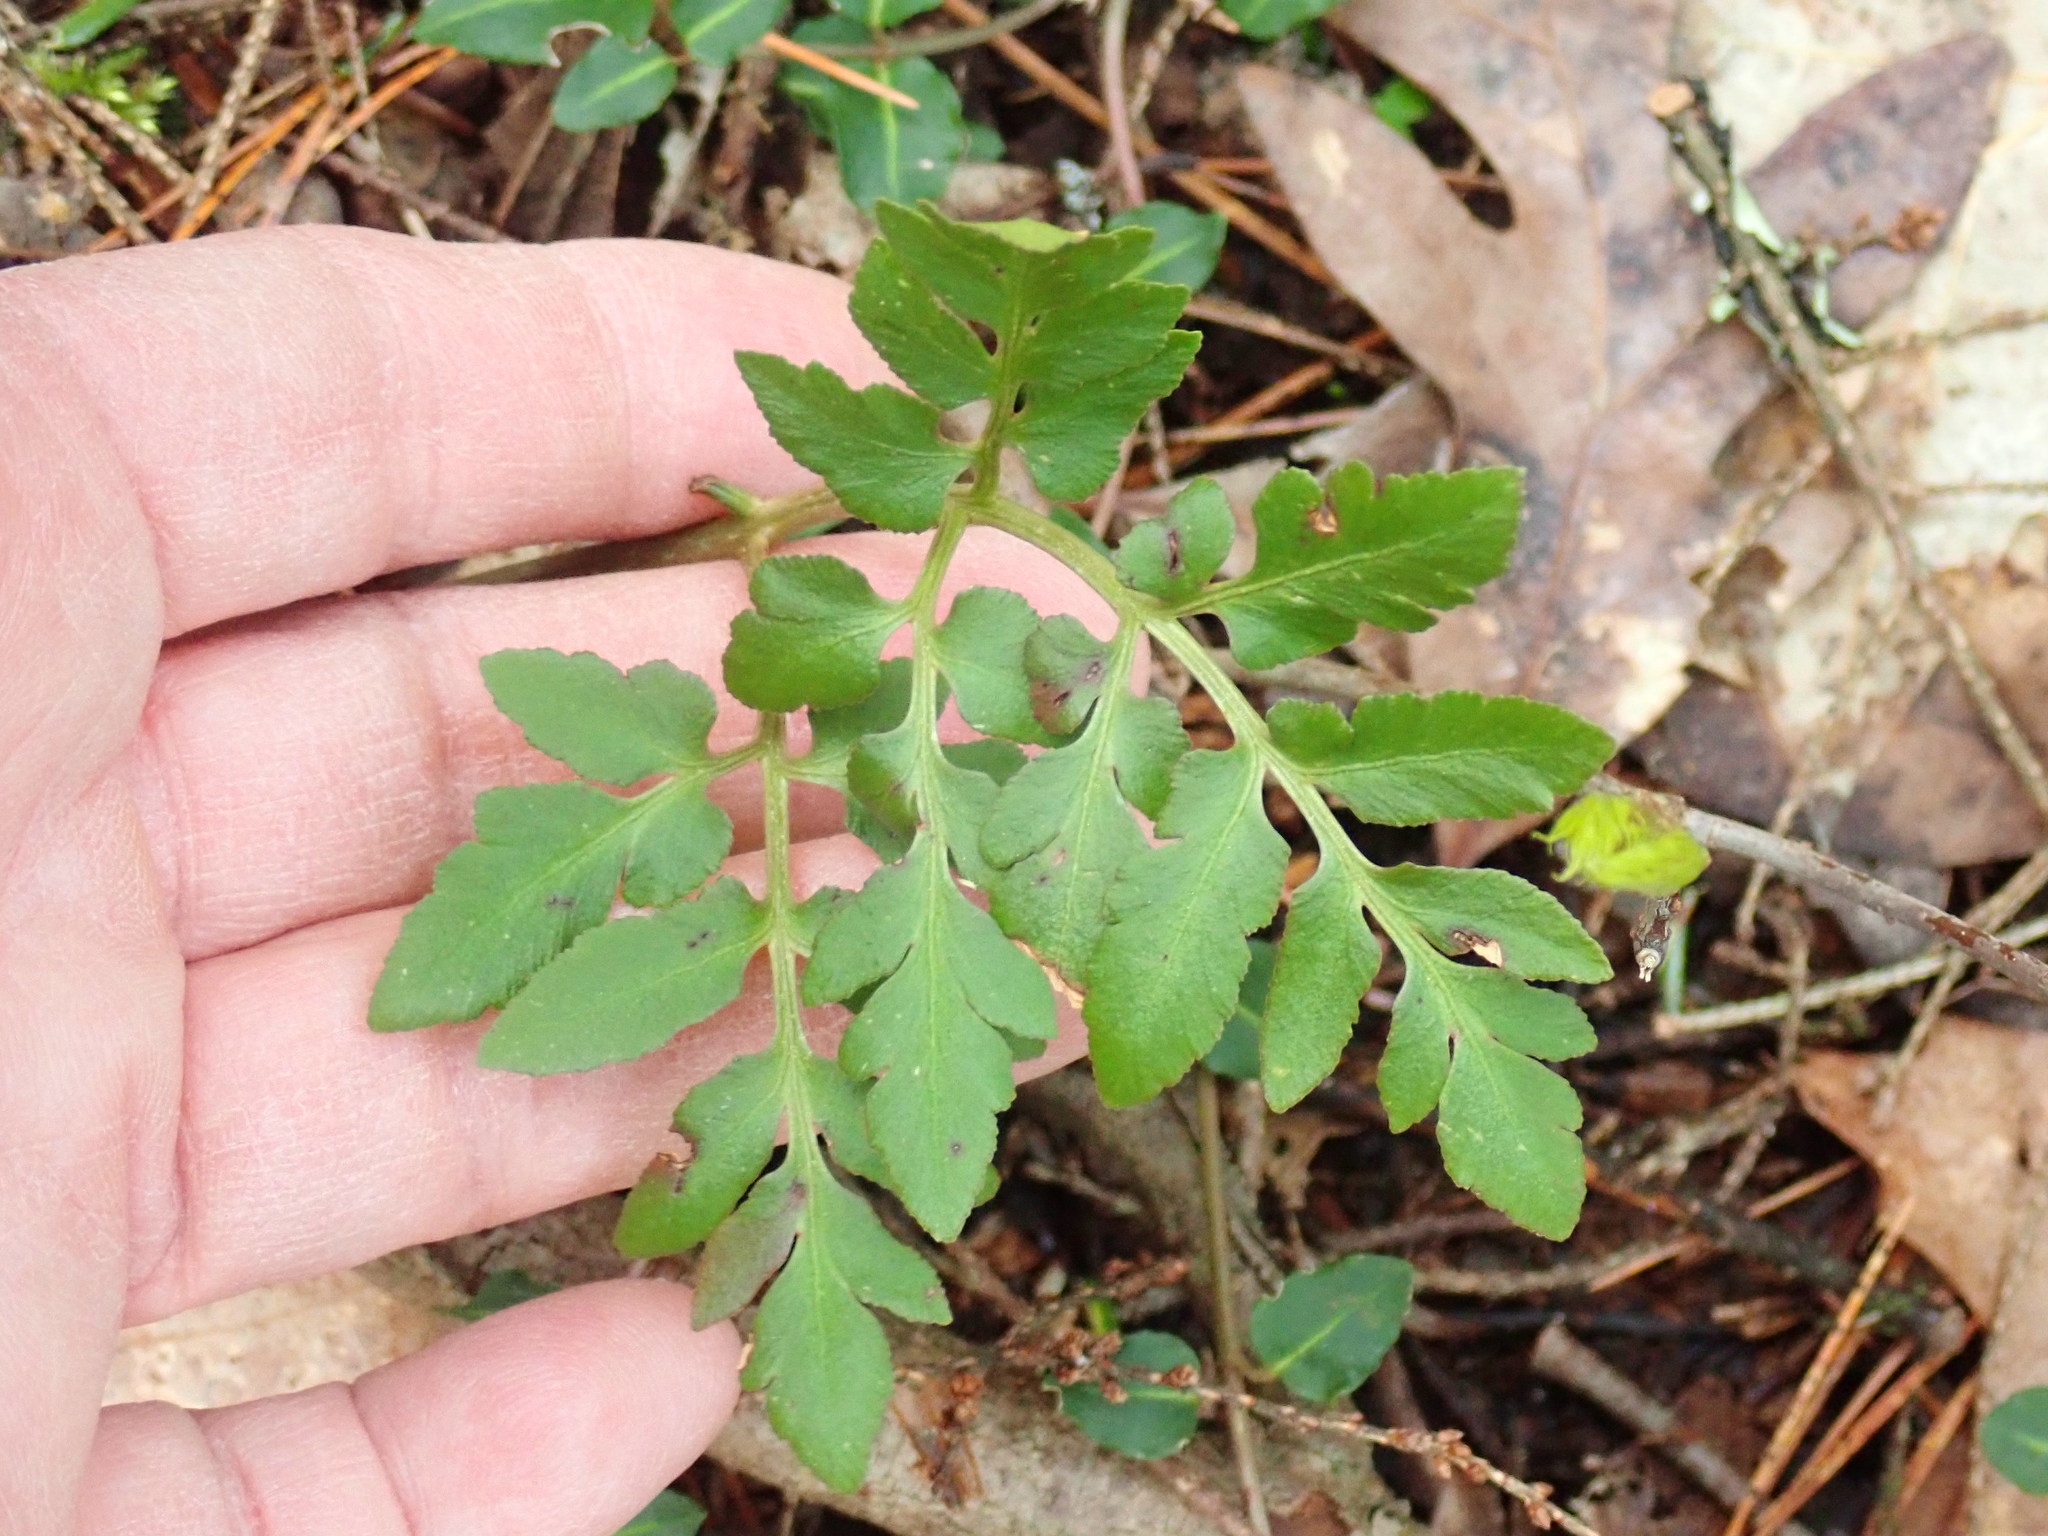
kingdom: Plantae
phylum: Tracheophyta
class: Polypodiopsida
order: Ophioglossales
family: Ophioglossaceae
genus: Sceptridium
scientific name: Sceptridium dissectum
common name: Cut-leaved grapefern
